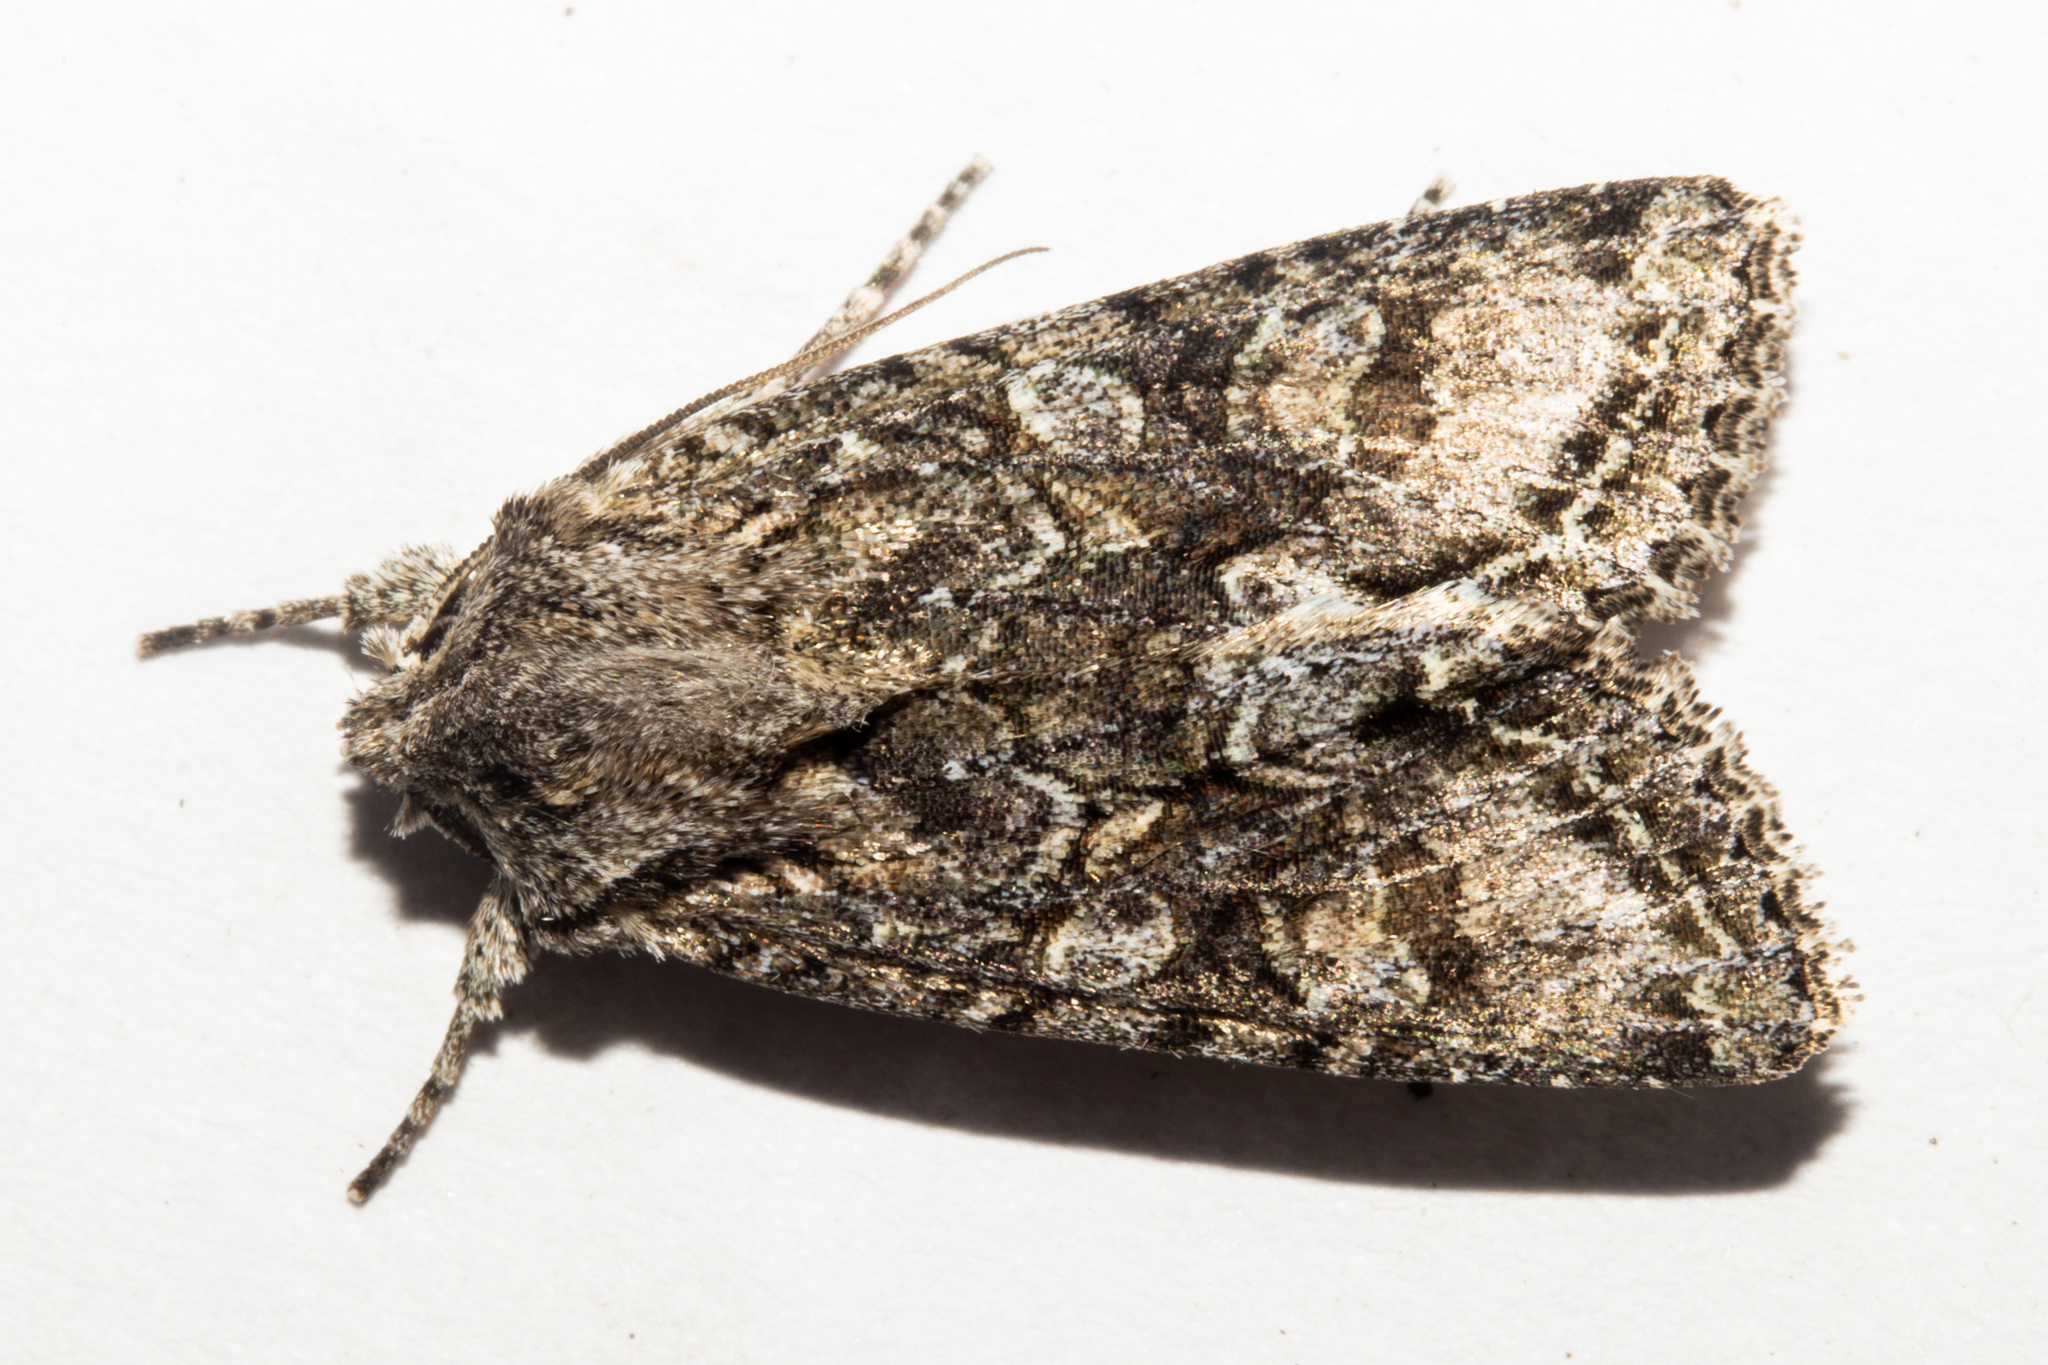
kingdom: Animalia
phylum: Arthropoda
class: Insecta
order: Lepidoptera
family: Noctuidae
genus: Ichneutica
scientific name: Ichneutica mutans
